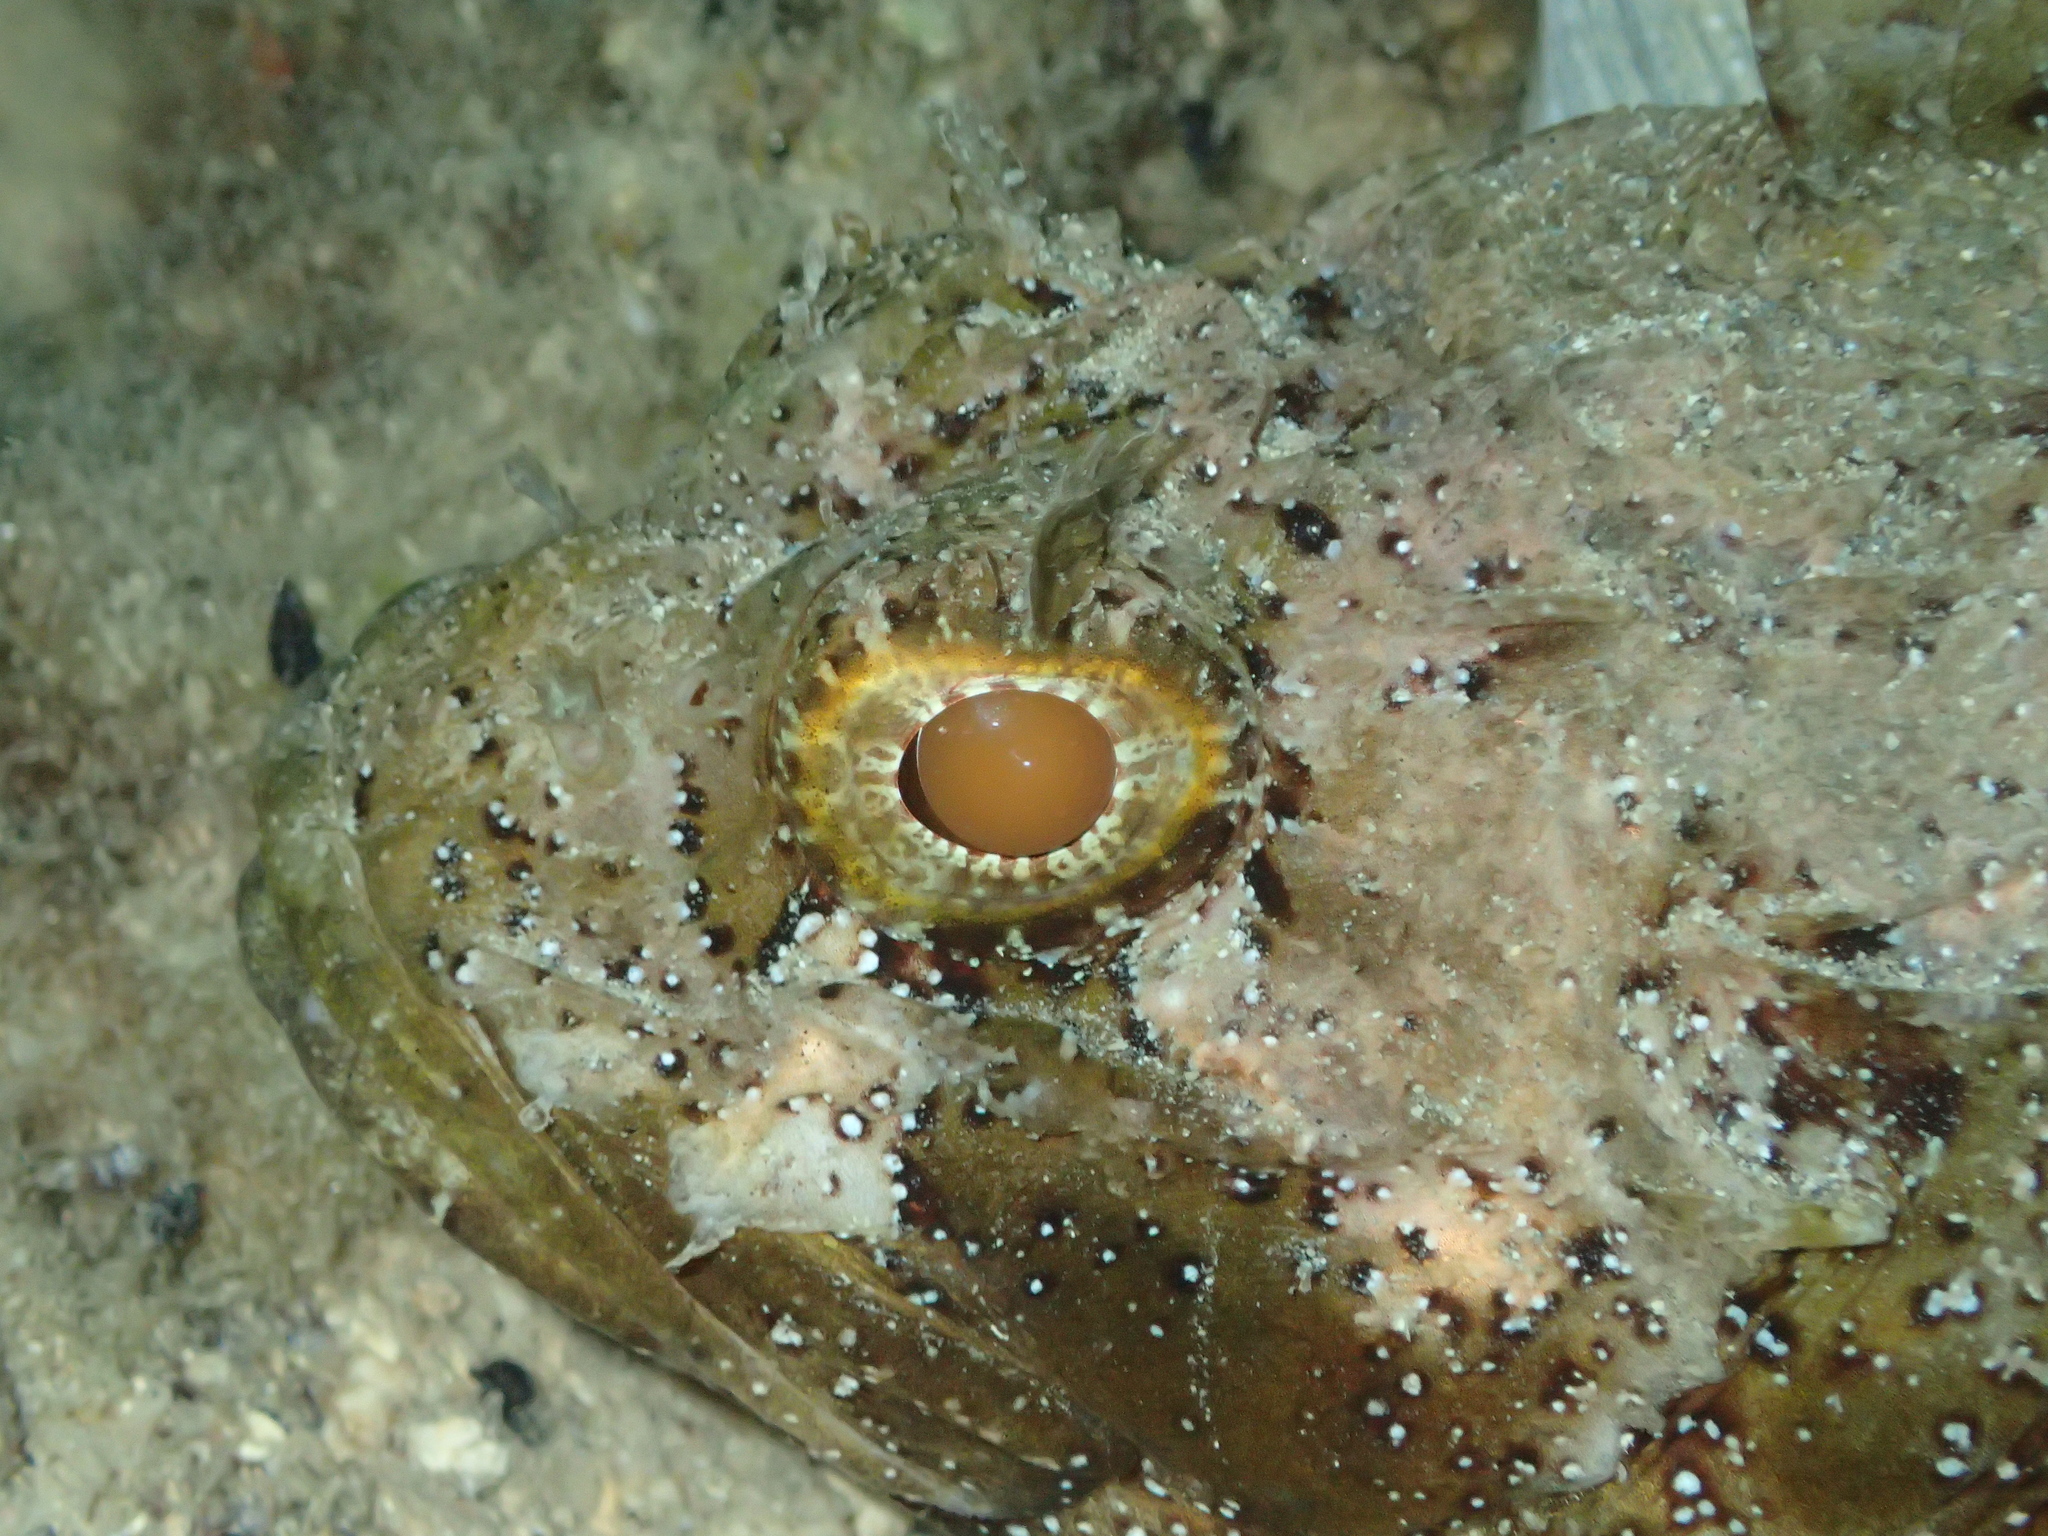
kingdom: Animalia
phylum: Chordata
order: Scorpaeniformes
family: Scorpaenidae
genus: Scorpaena
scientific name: Scorpaena porcus
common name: Black scorpionfish
